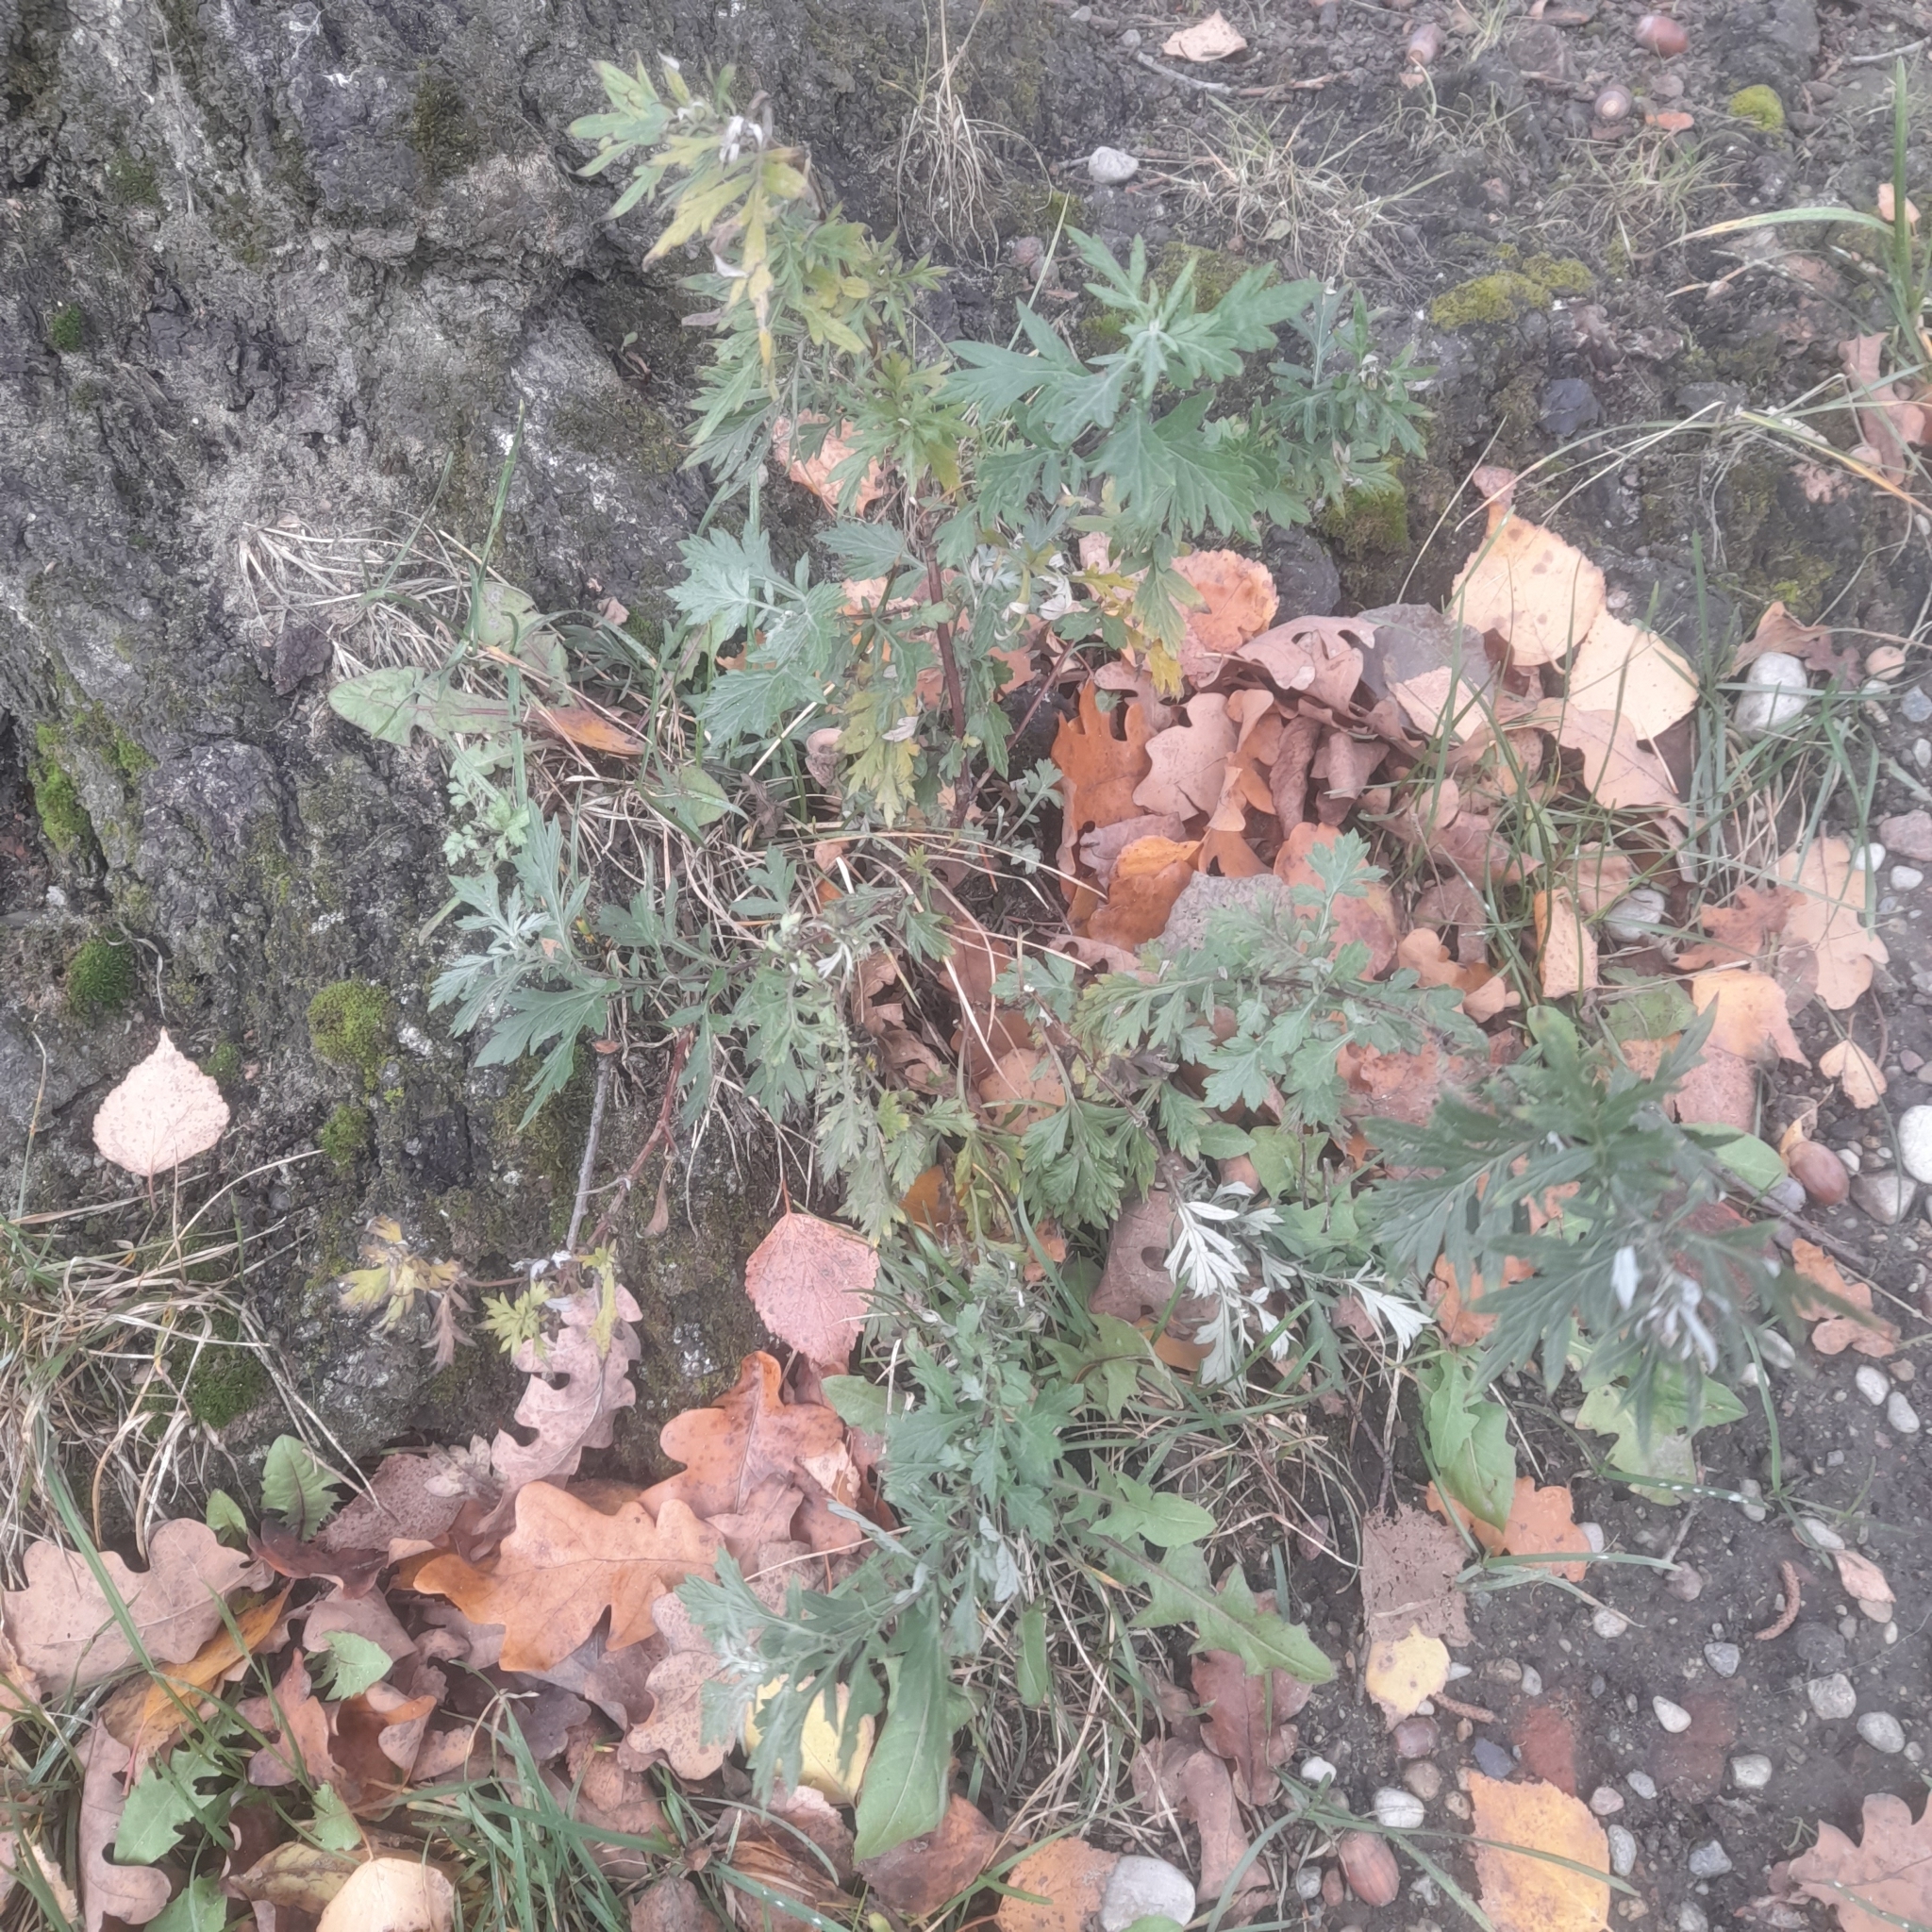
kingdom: Plantae
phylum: Tracheophyta
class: Magnoliopsida
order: Asterales
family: Asteraceae
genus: Artemisia
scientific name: Artemisia vulgaris
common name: Mugwort
